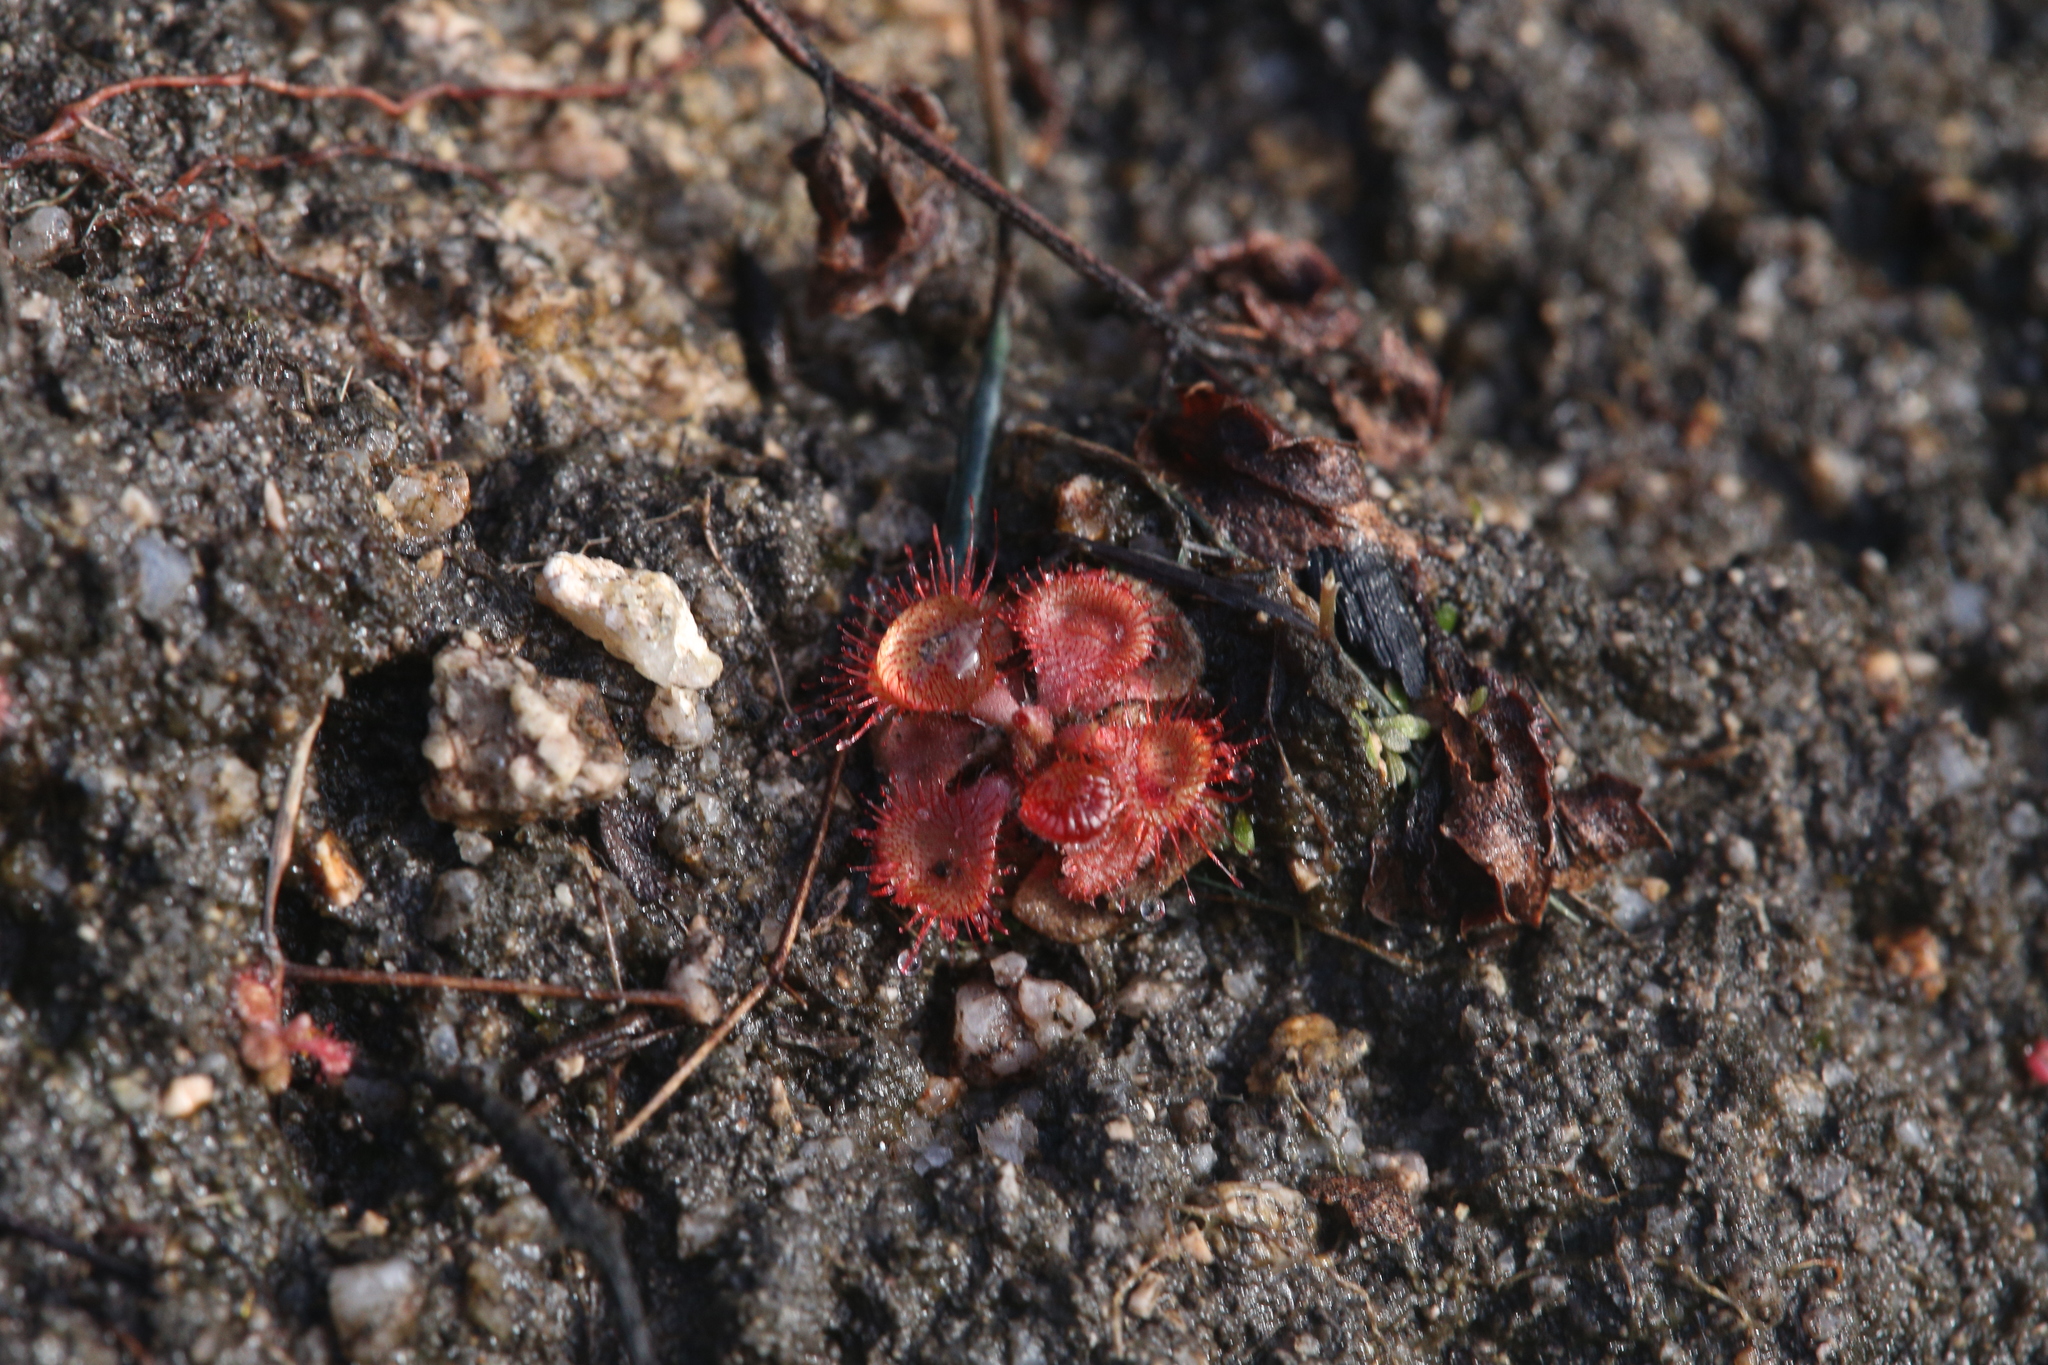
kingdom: Plantae
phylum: Tracheophyta
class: Magnoliopsida
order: Caryophyllales
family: Droseraceae
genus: Drosera
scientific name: Drosera spatulata
